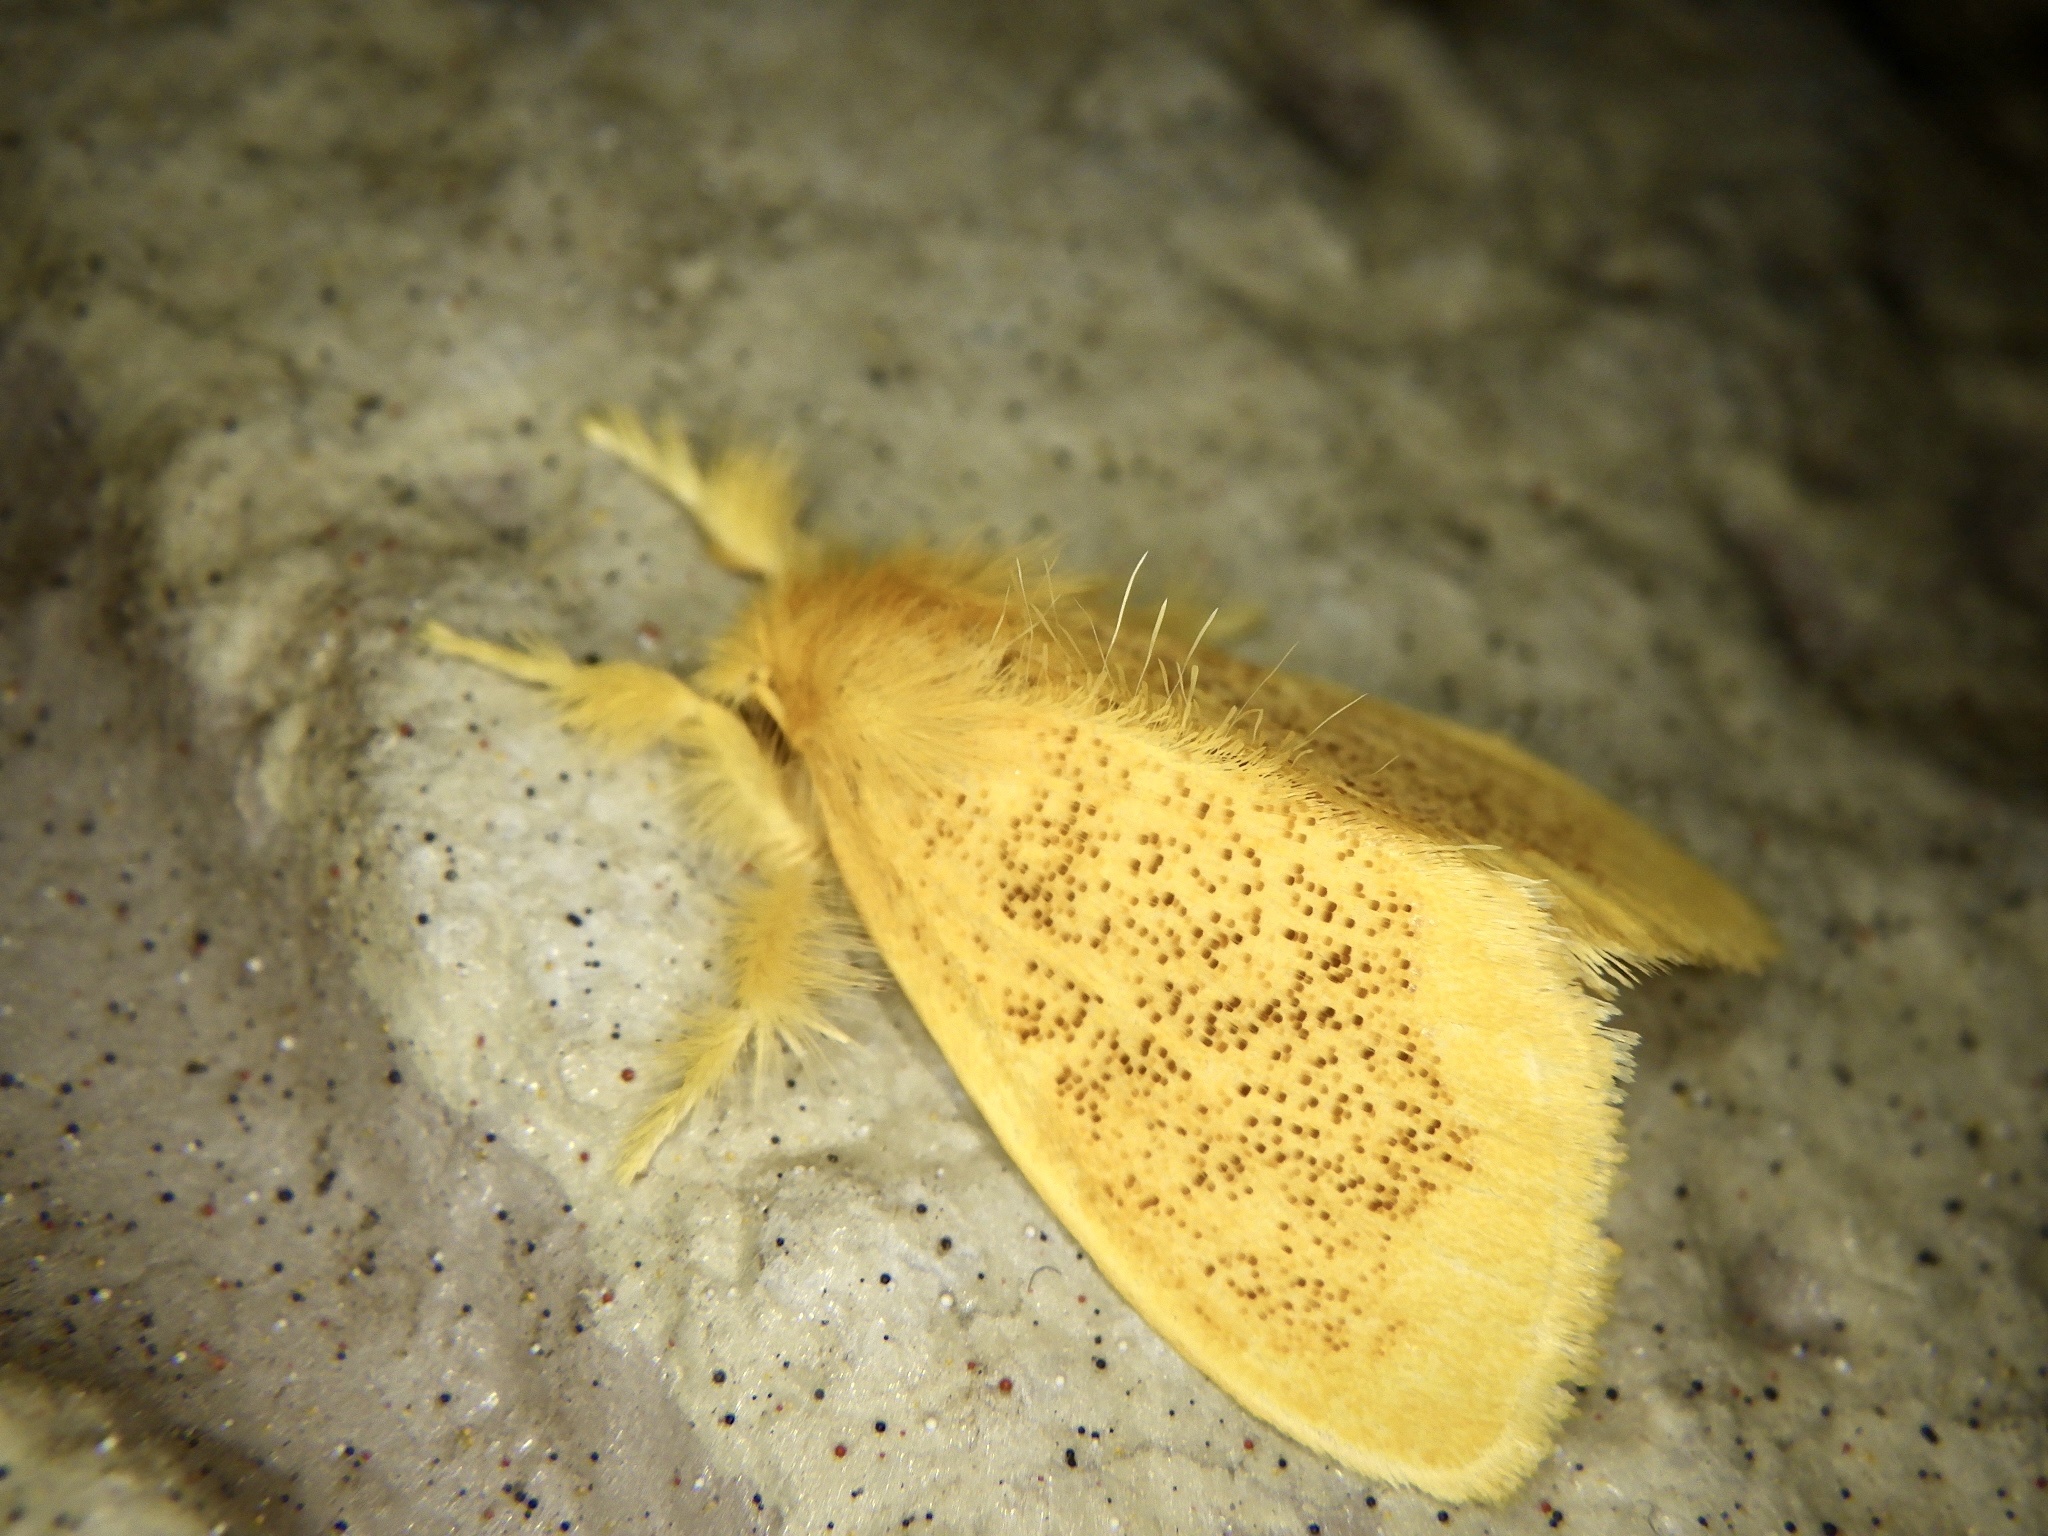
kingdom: Animalia
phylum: Arthropoda
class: Insecta
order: Lepidoptera
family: Erebidae
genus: Somena
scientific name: Somena
